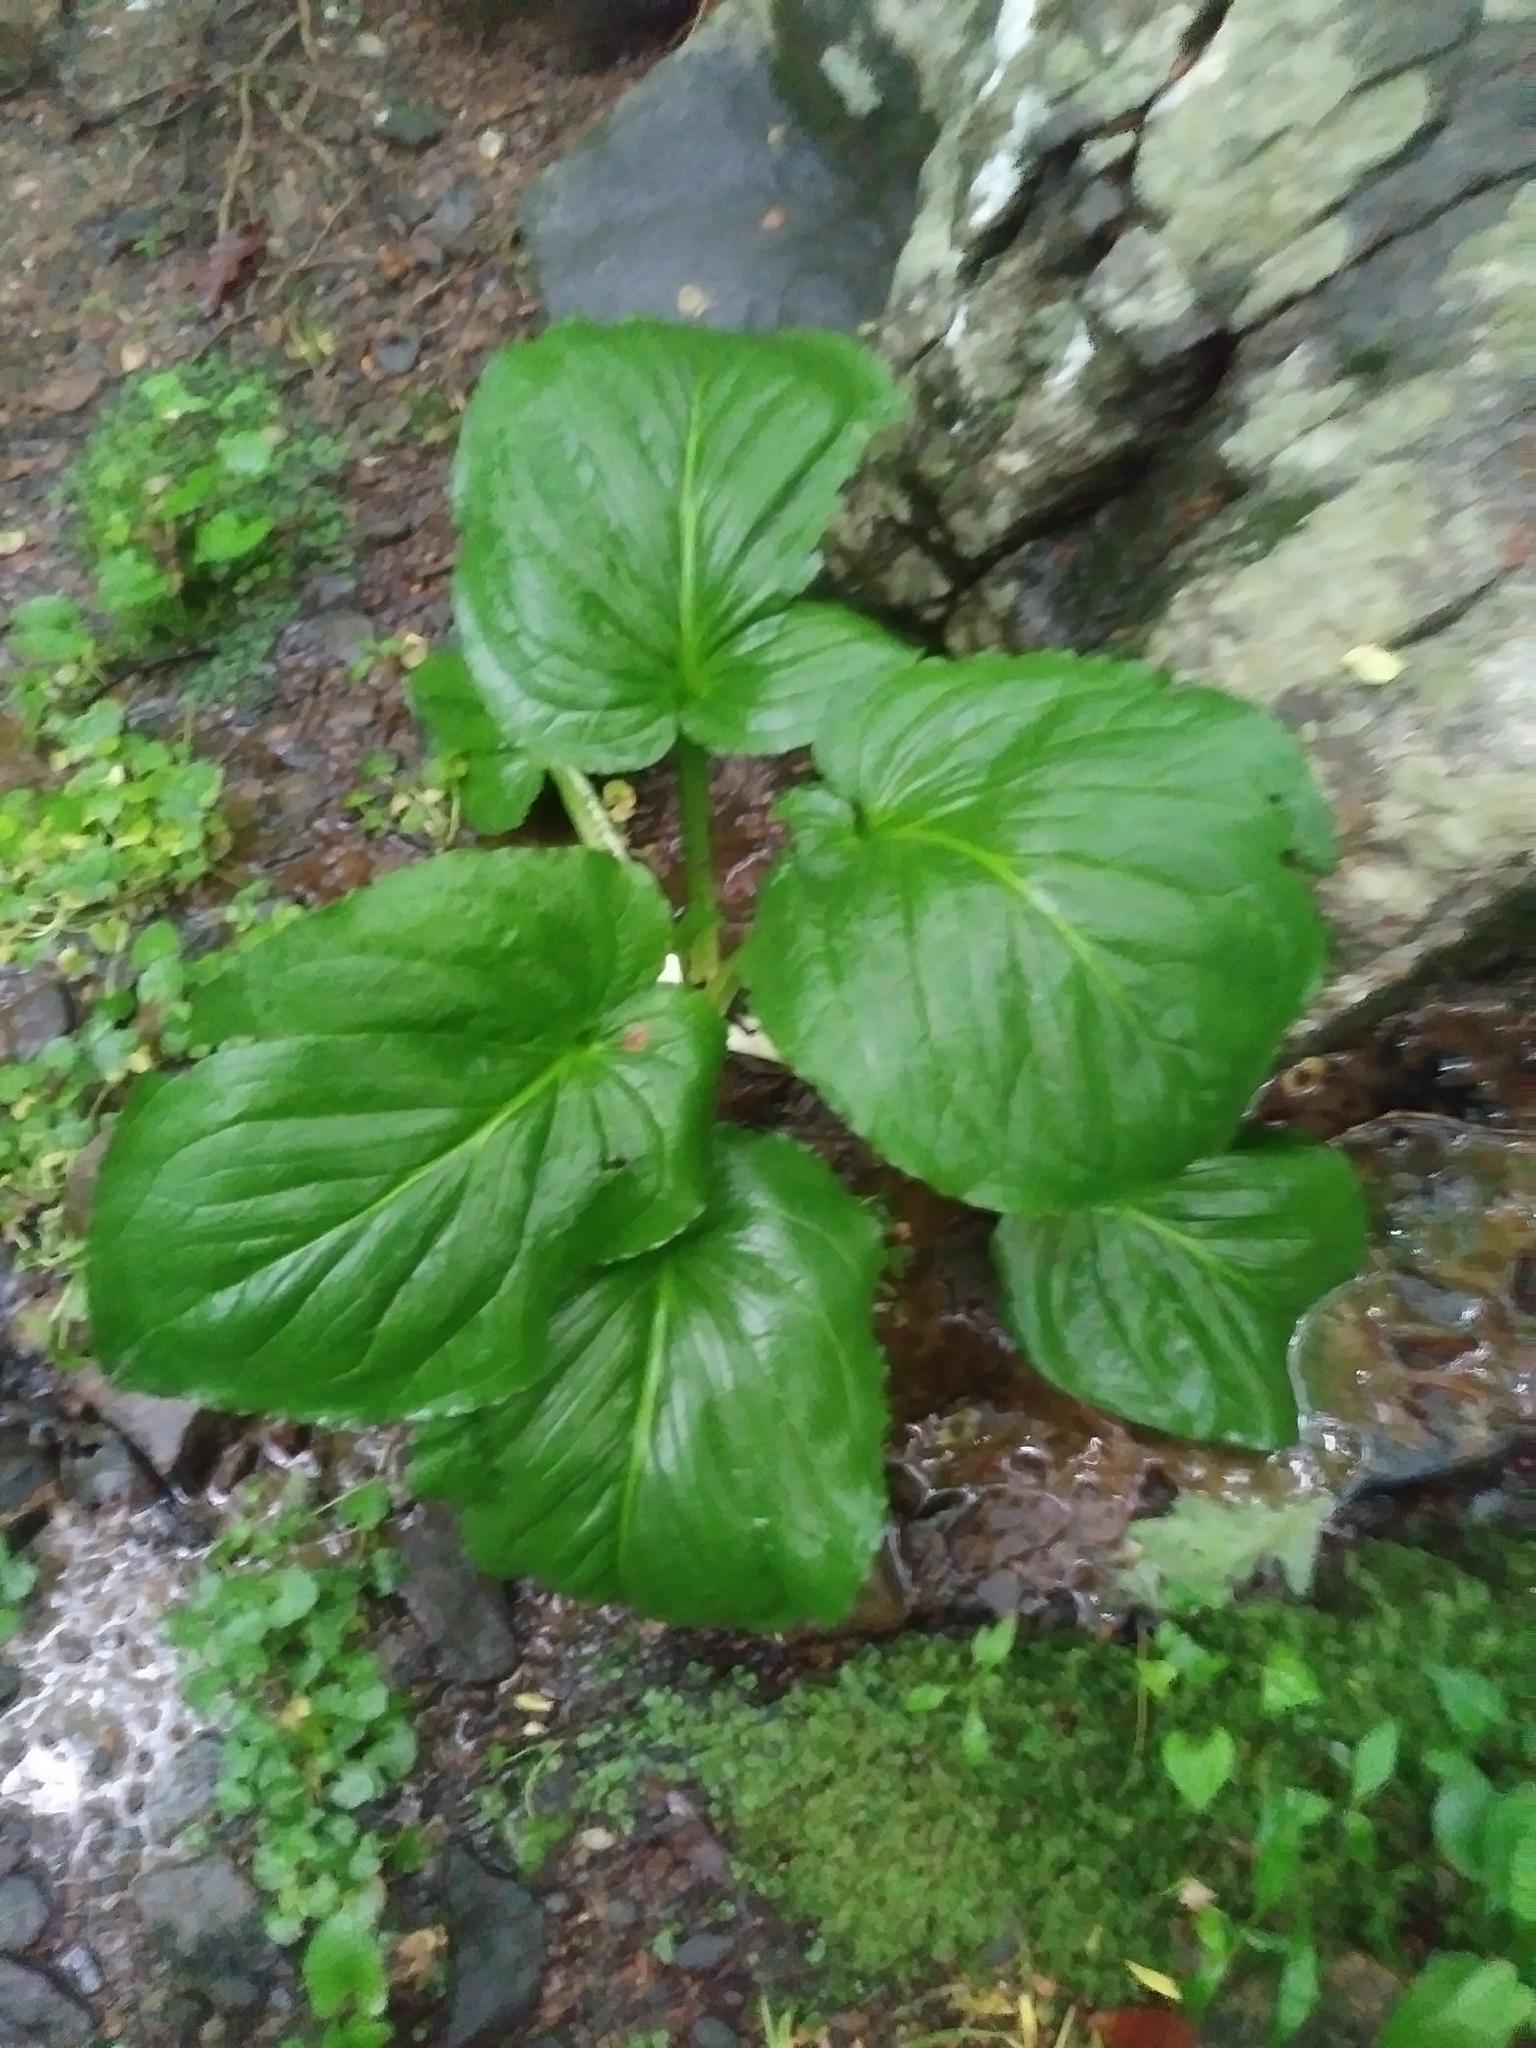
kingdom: Plantae
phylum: Tracheophyta
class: Liliopsida
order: Alismatales
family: Araceae
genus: Symplocarpus
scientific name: Symplocarpus foetidus
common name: Eastern skunk cabbage
